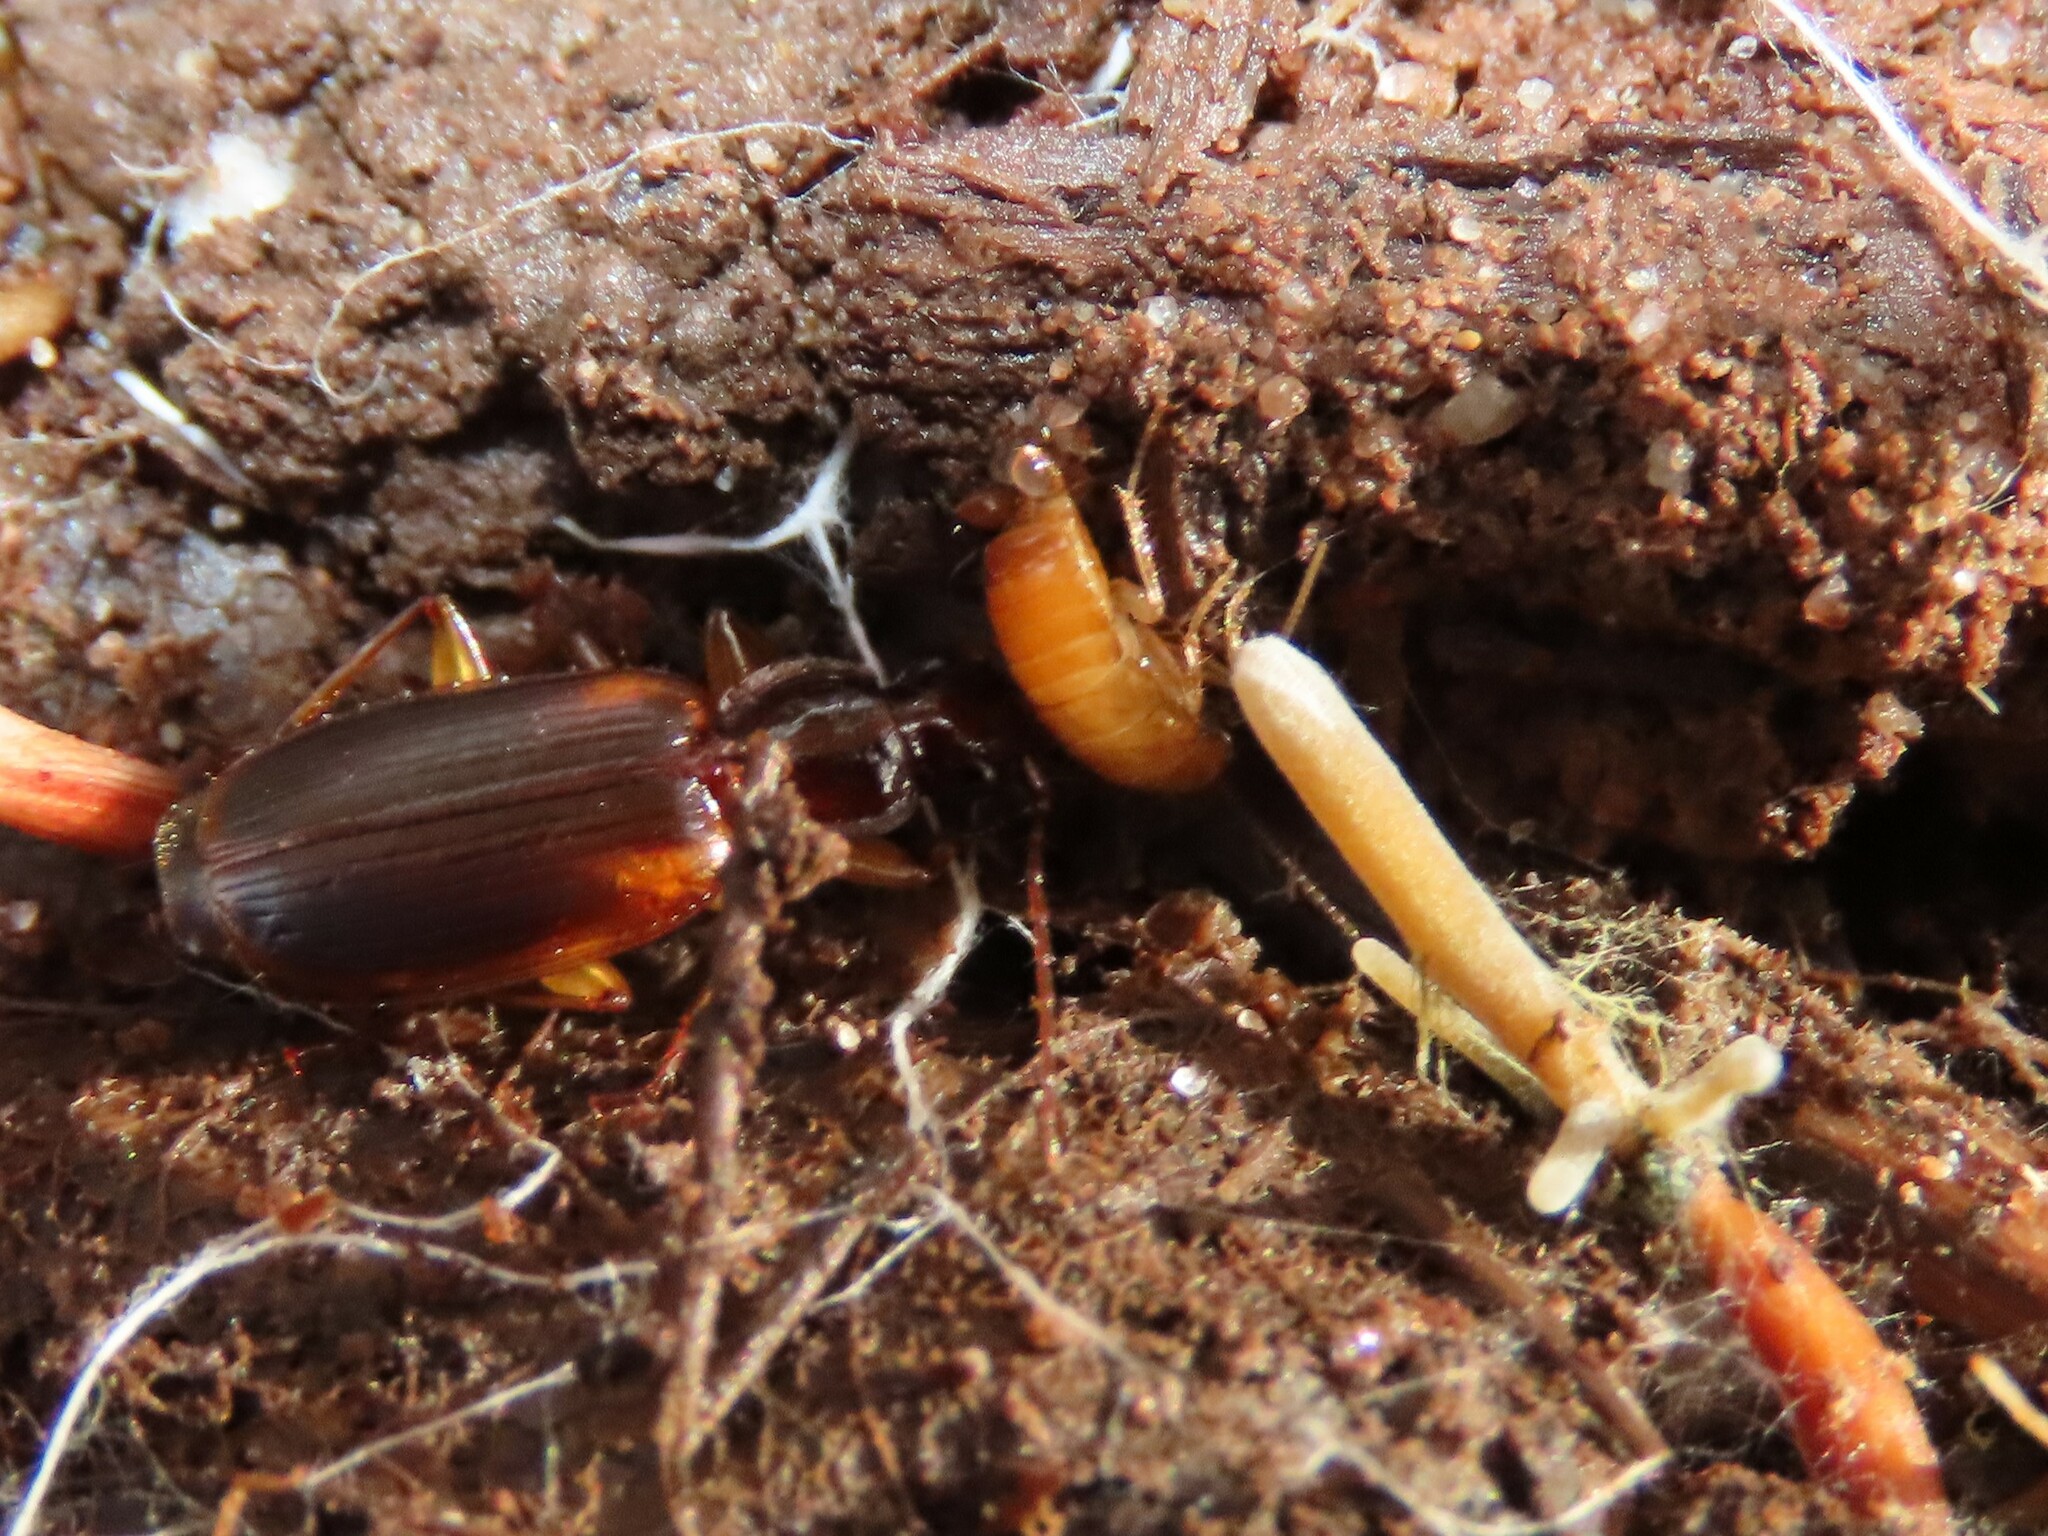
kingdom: Animalia
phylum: Arthropoda
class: Insecta
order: Coleoptera
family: Carabidae
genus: Pinacodera
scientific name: Pinacodera limbata
